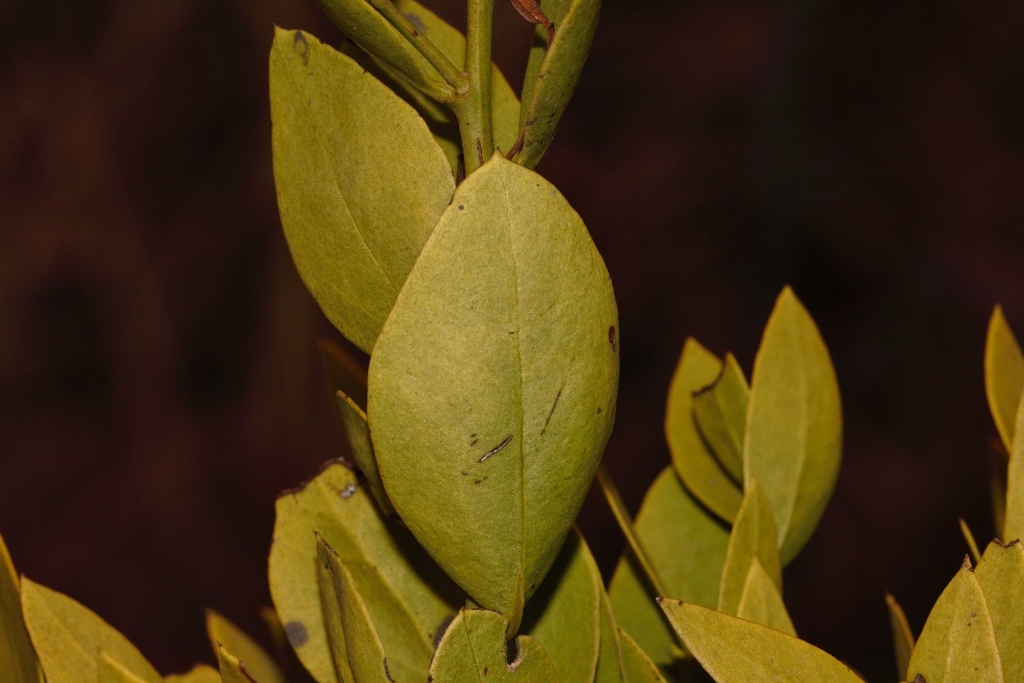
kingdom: Plantae
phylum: Tracheophyta
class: Magnoliopsida
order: Santalales
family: Santalaceae
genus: Osyris
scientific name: Osyris lanceolata
